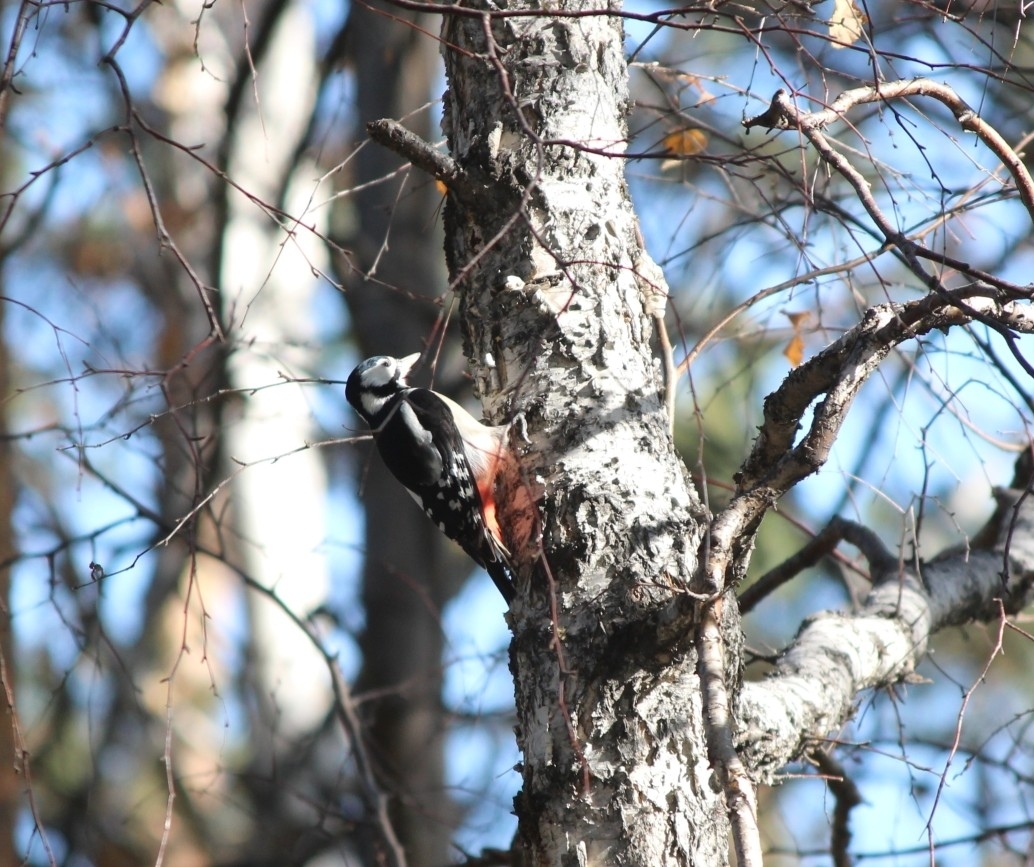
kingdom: Animalia
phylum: Chordata
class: Aves
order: Piciformes
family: Picidae
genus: Dendrocopos
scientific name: Dendrocopos major
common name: Great spotted woodpecker
